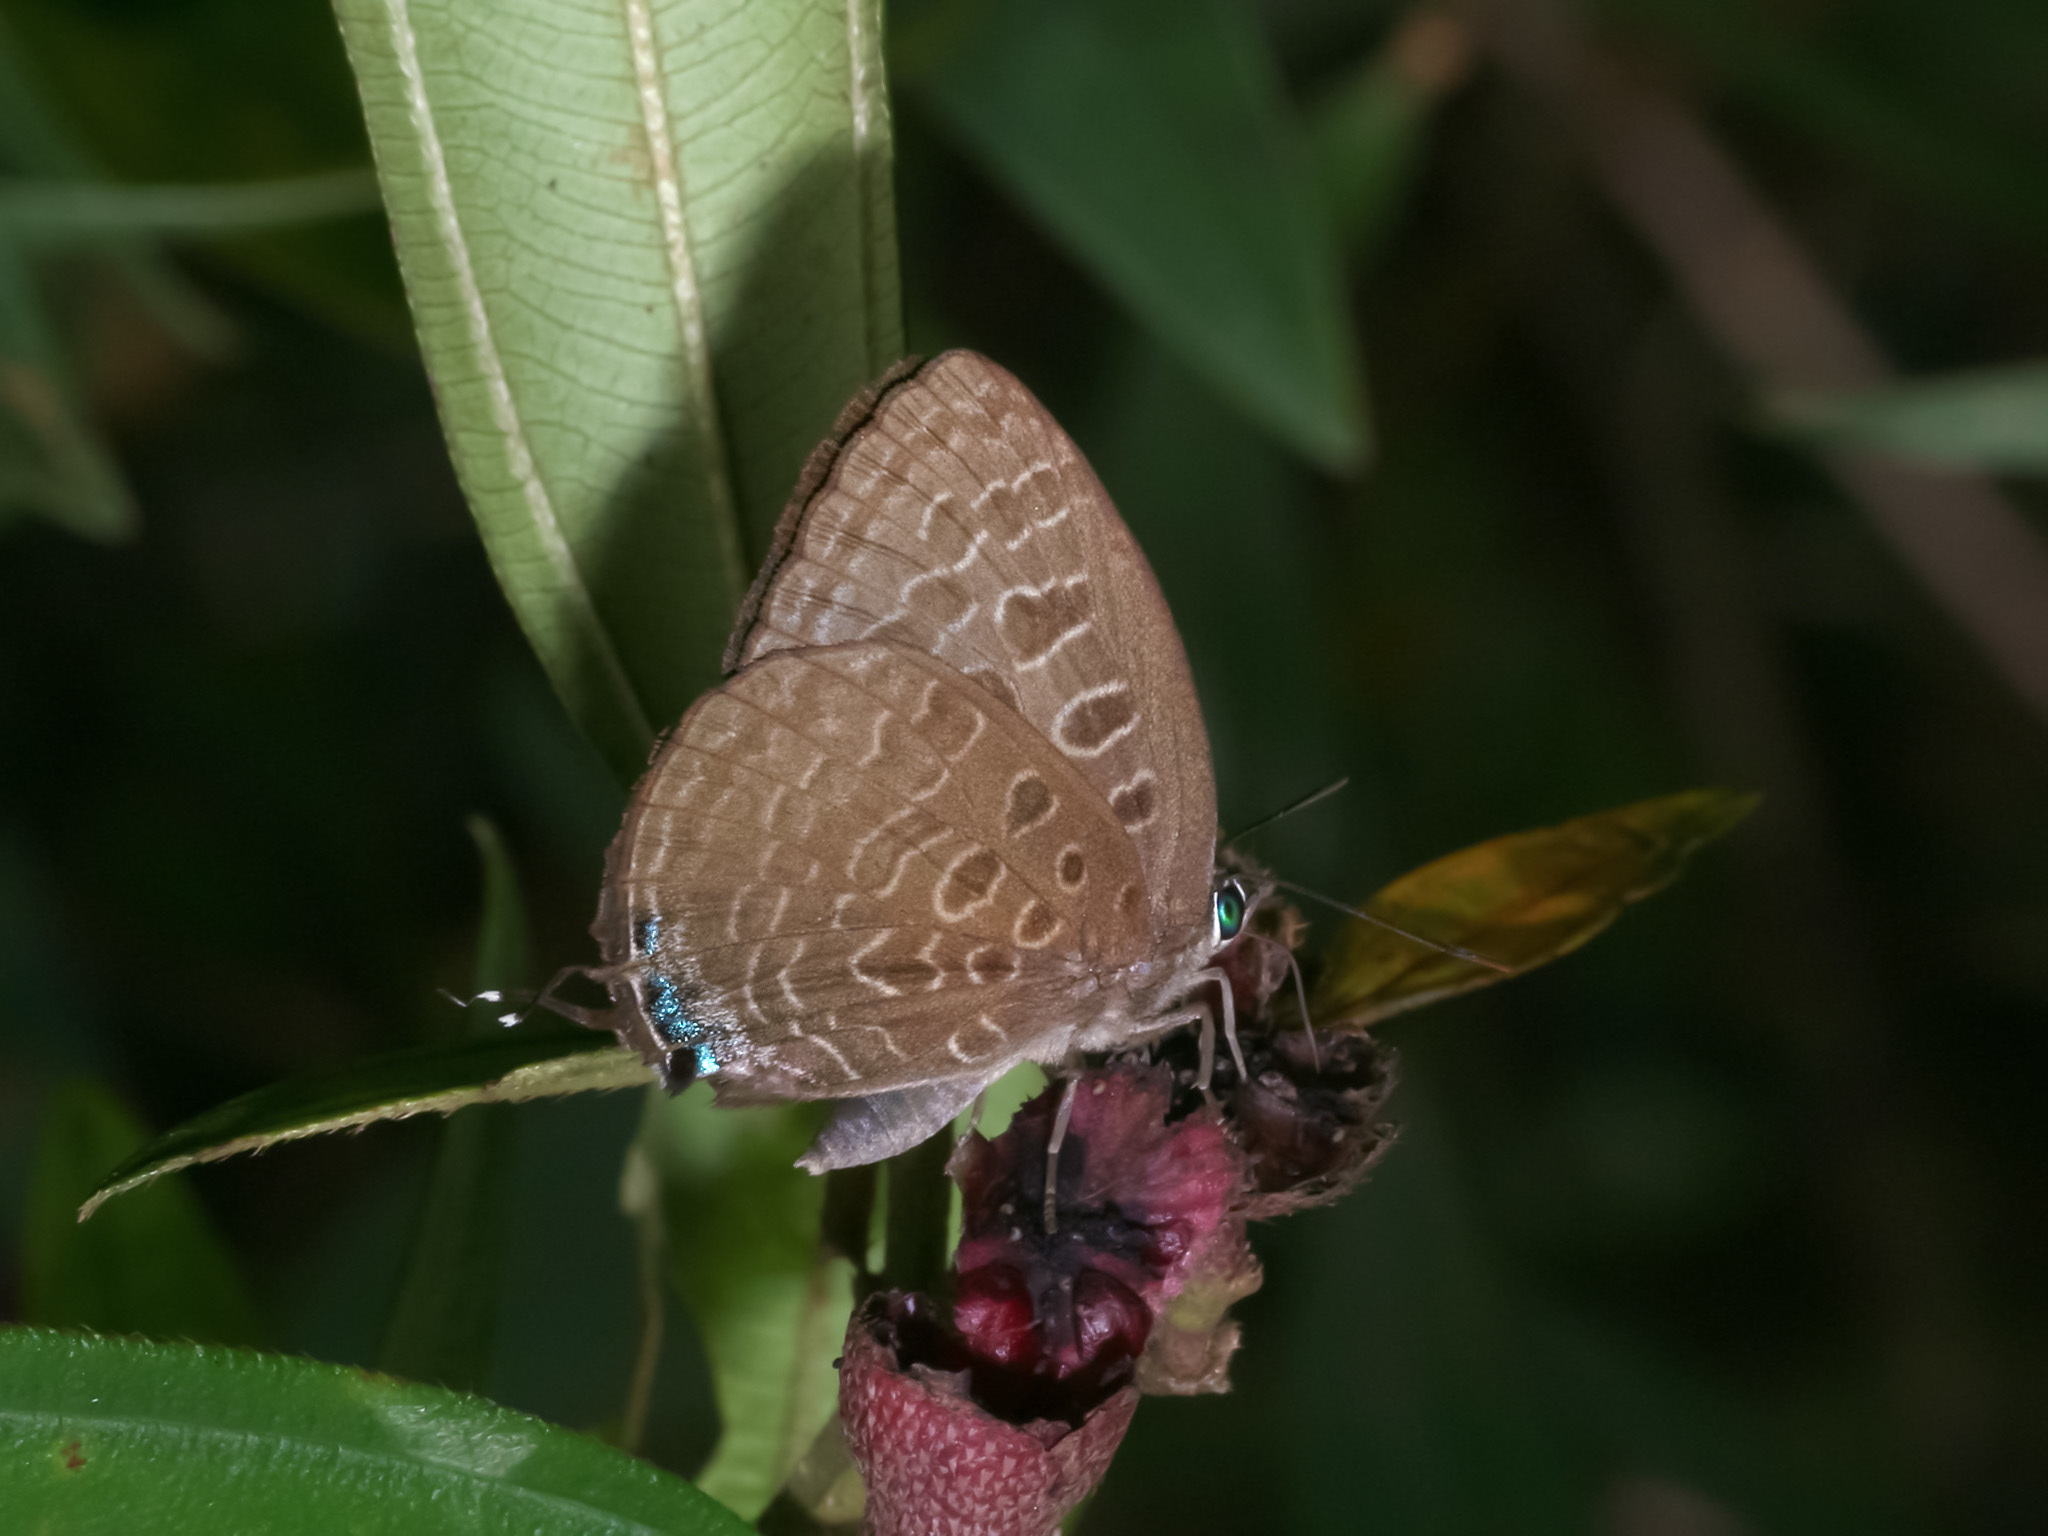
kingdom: Animalia
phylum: Arthropoda
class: Insecta
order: Lepidoptera
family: Lycaenidae
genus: Arhopala
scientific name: Arhopala eumolphus
